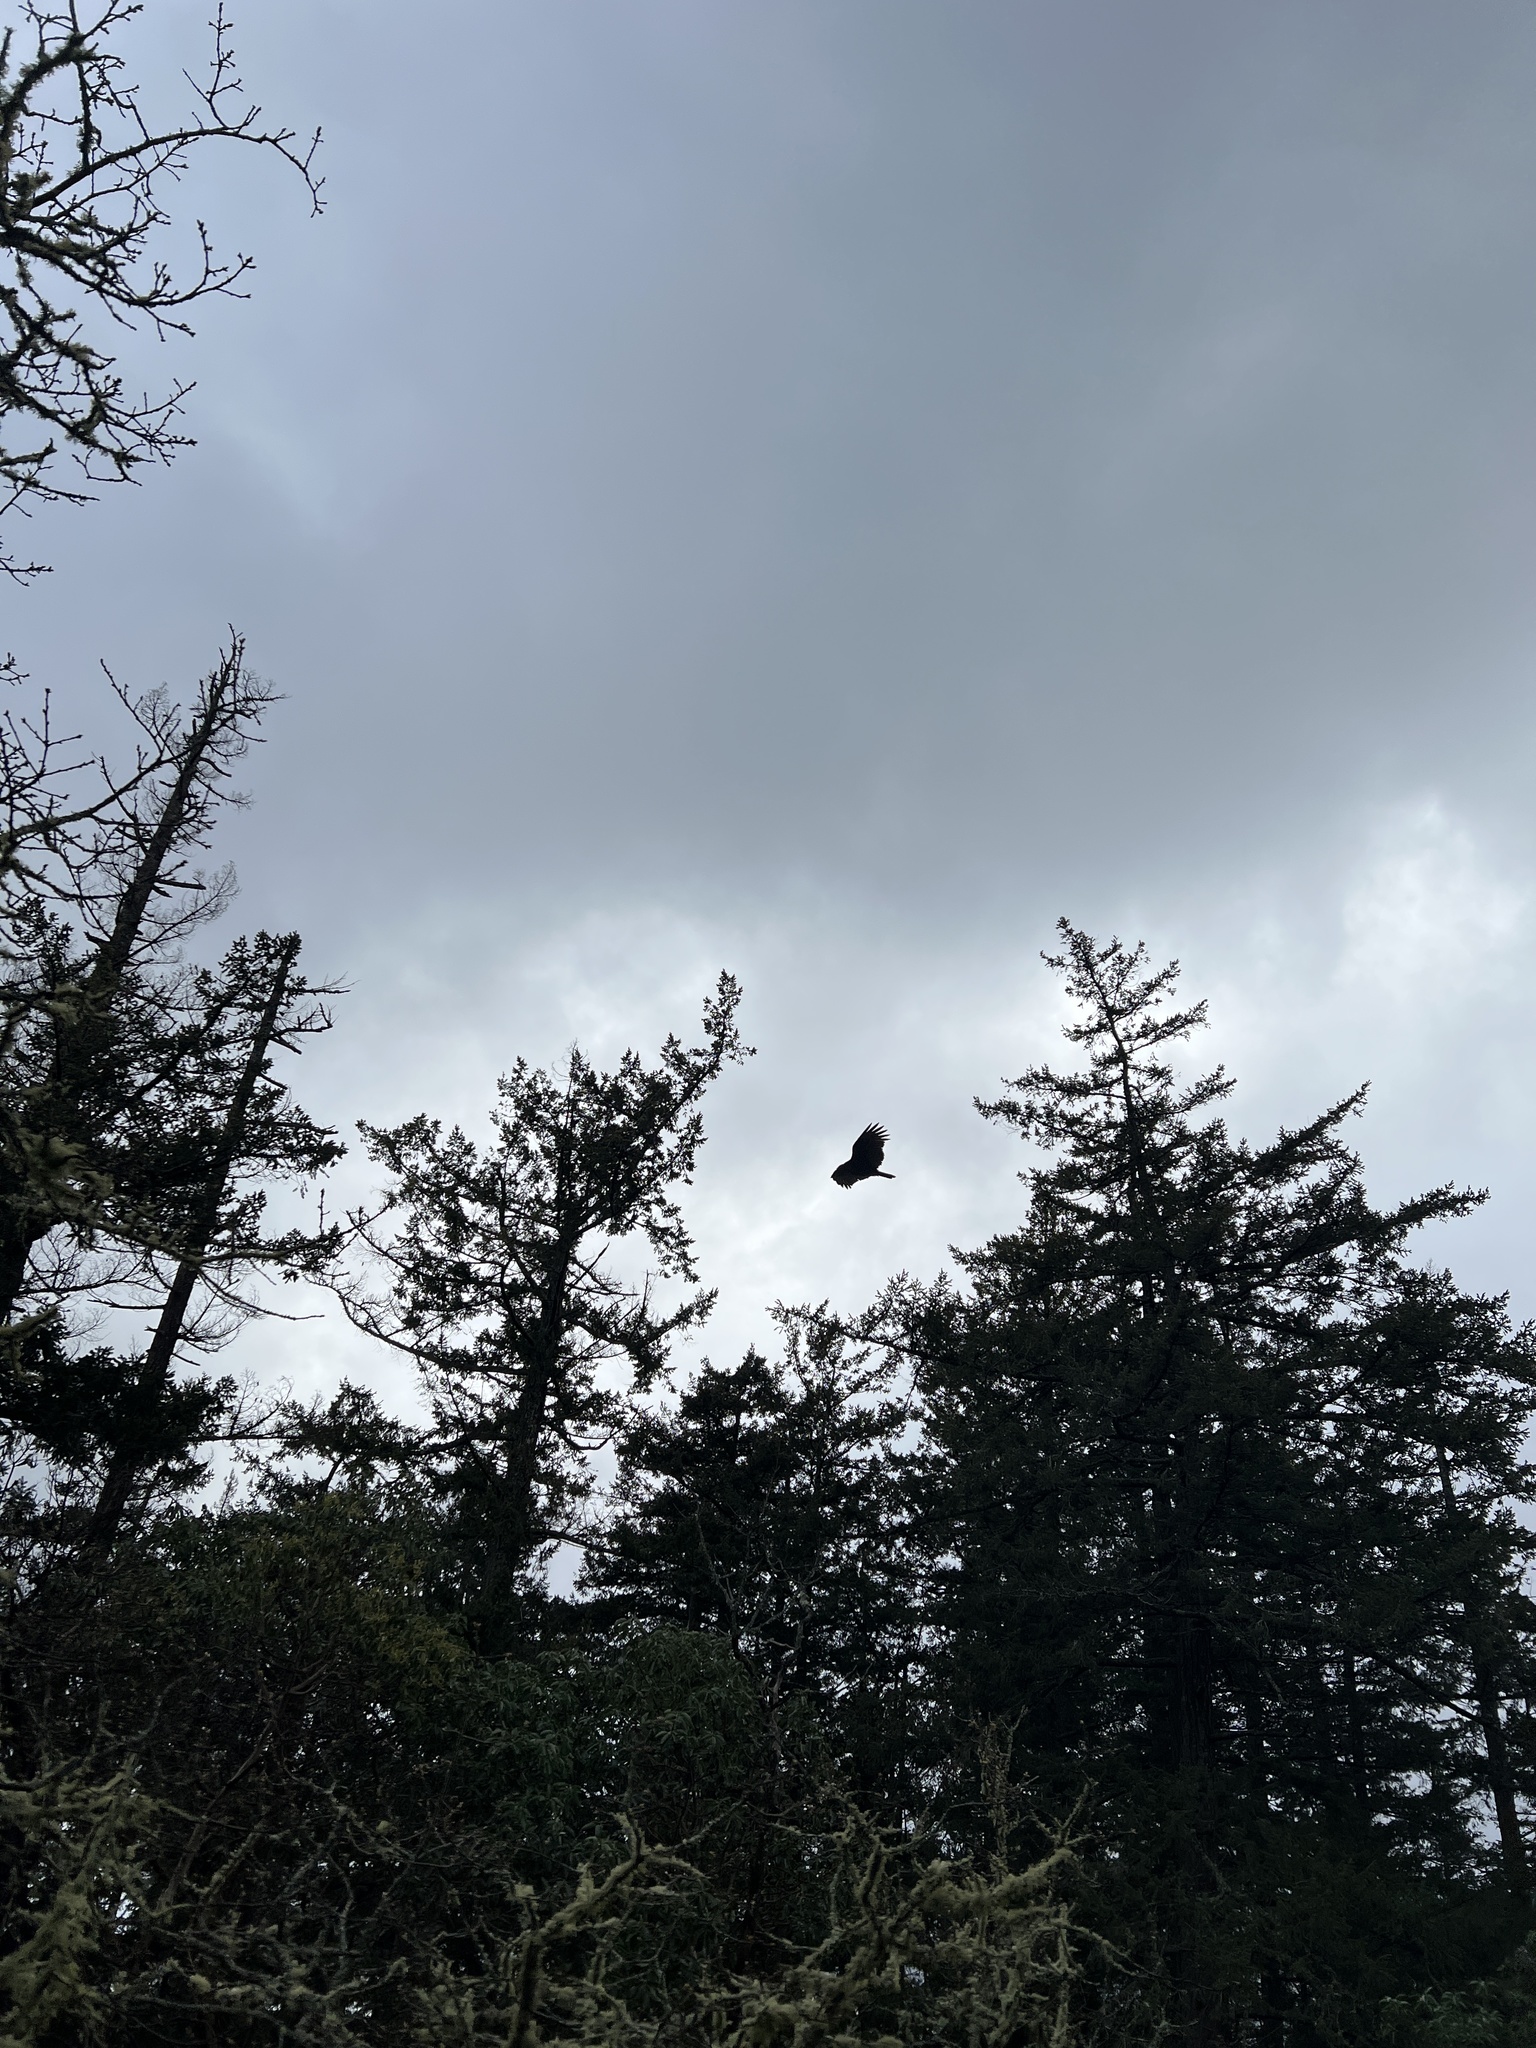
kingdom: Animalia
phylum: Chordata
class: Aves
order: Accipitriformes
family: Cathartidae
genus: Cathartes
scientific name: Cathartes aura
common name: Turkey vulture
